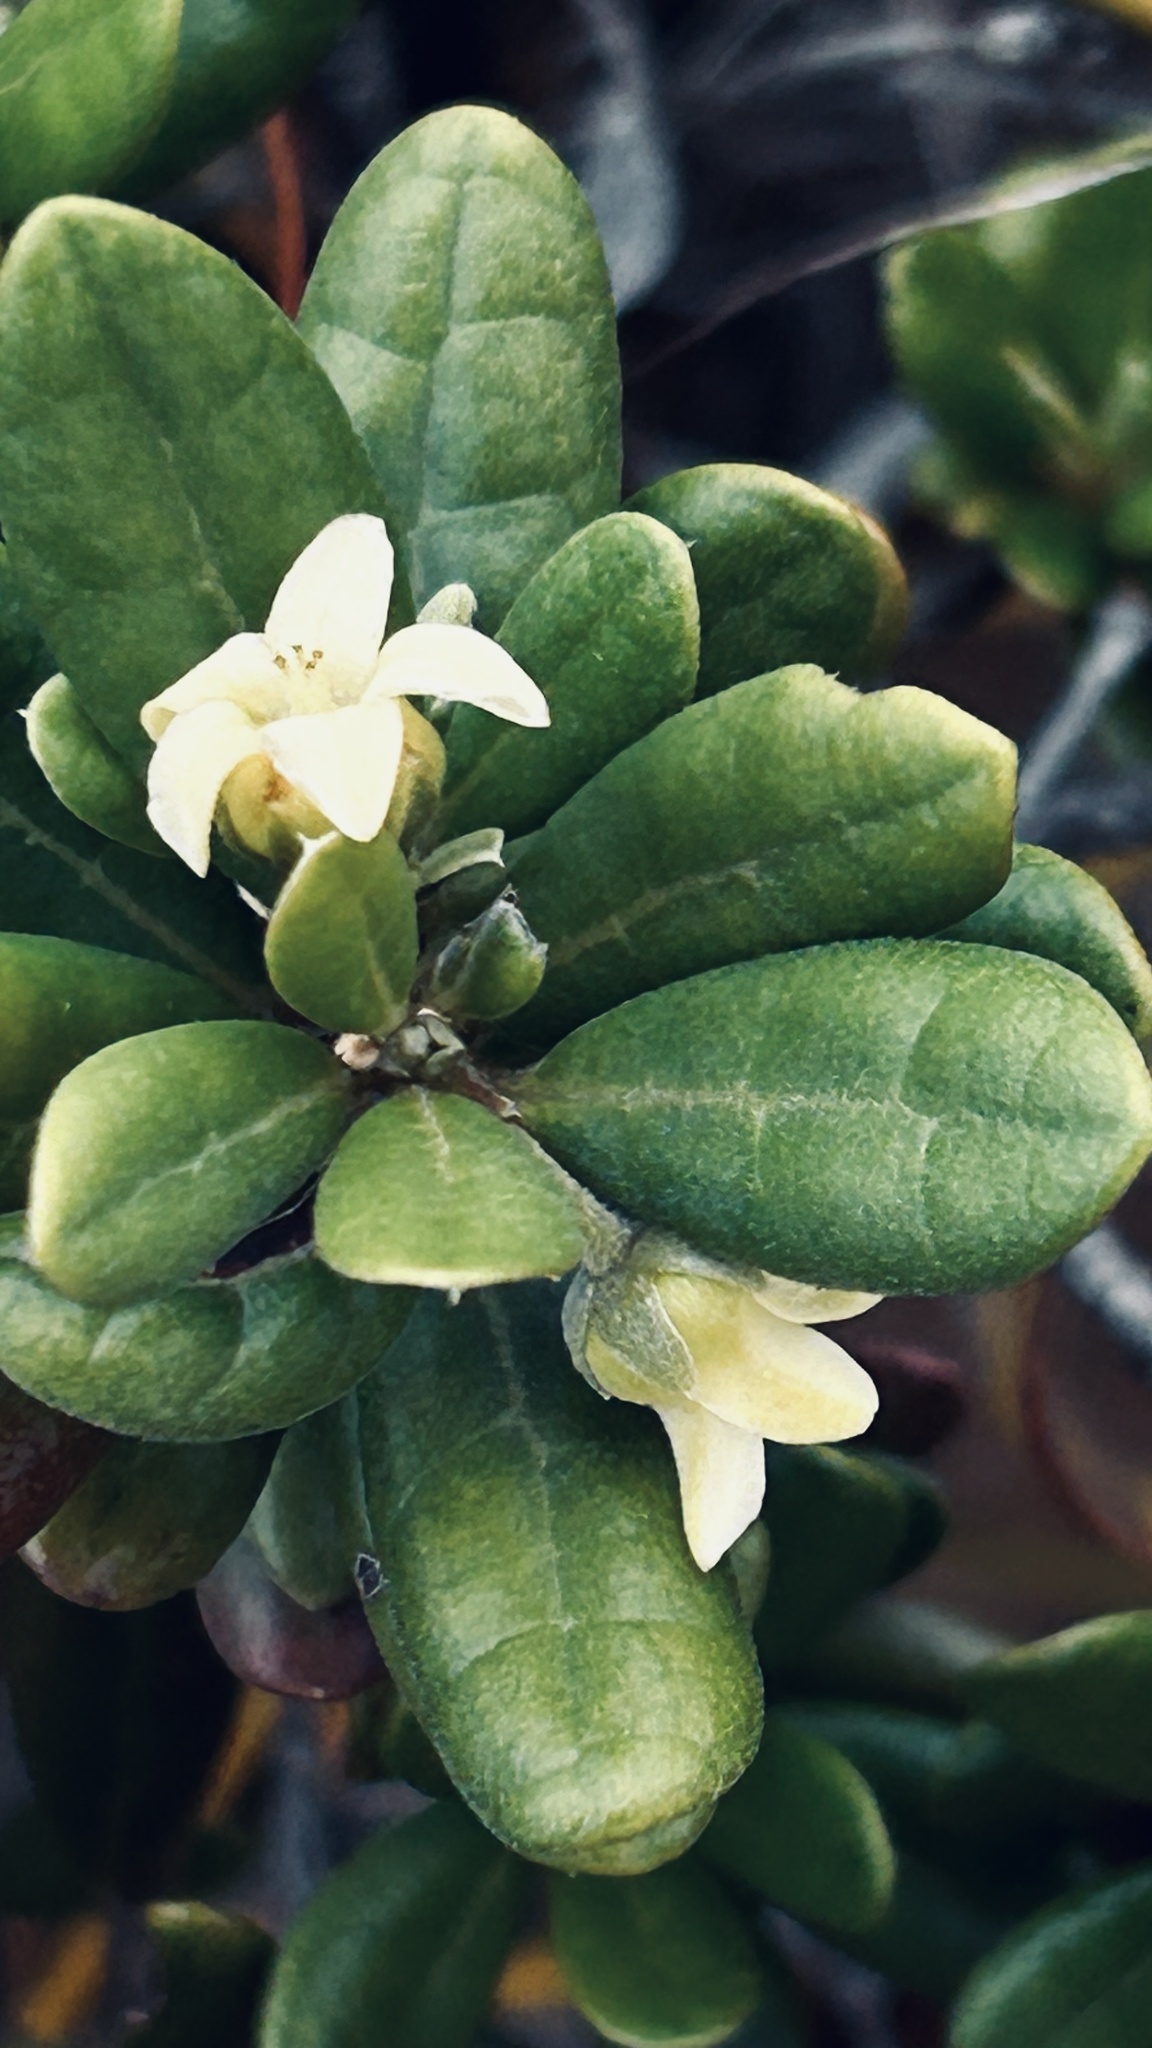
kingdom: Plantae
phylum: Tracheophyta
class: Magnoliopsida
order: Ericales
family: Ebenaceae
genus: Diospyros
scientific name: Diospyros dichrophylla
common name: Common star-apple
